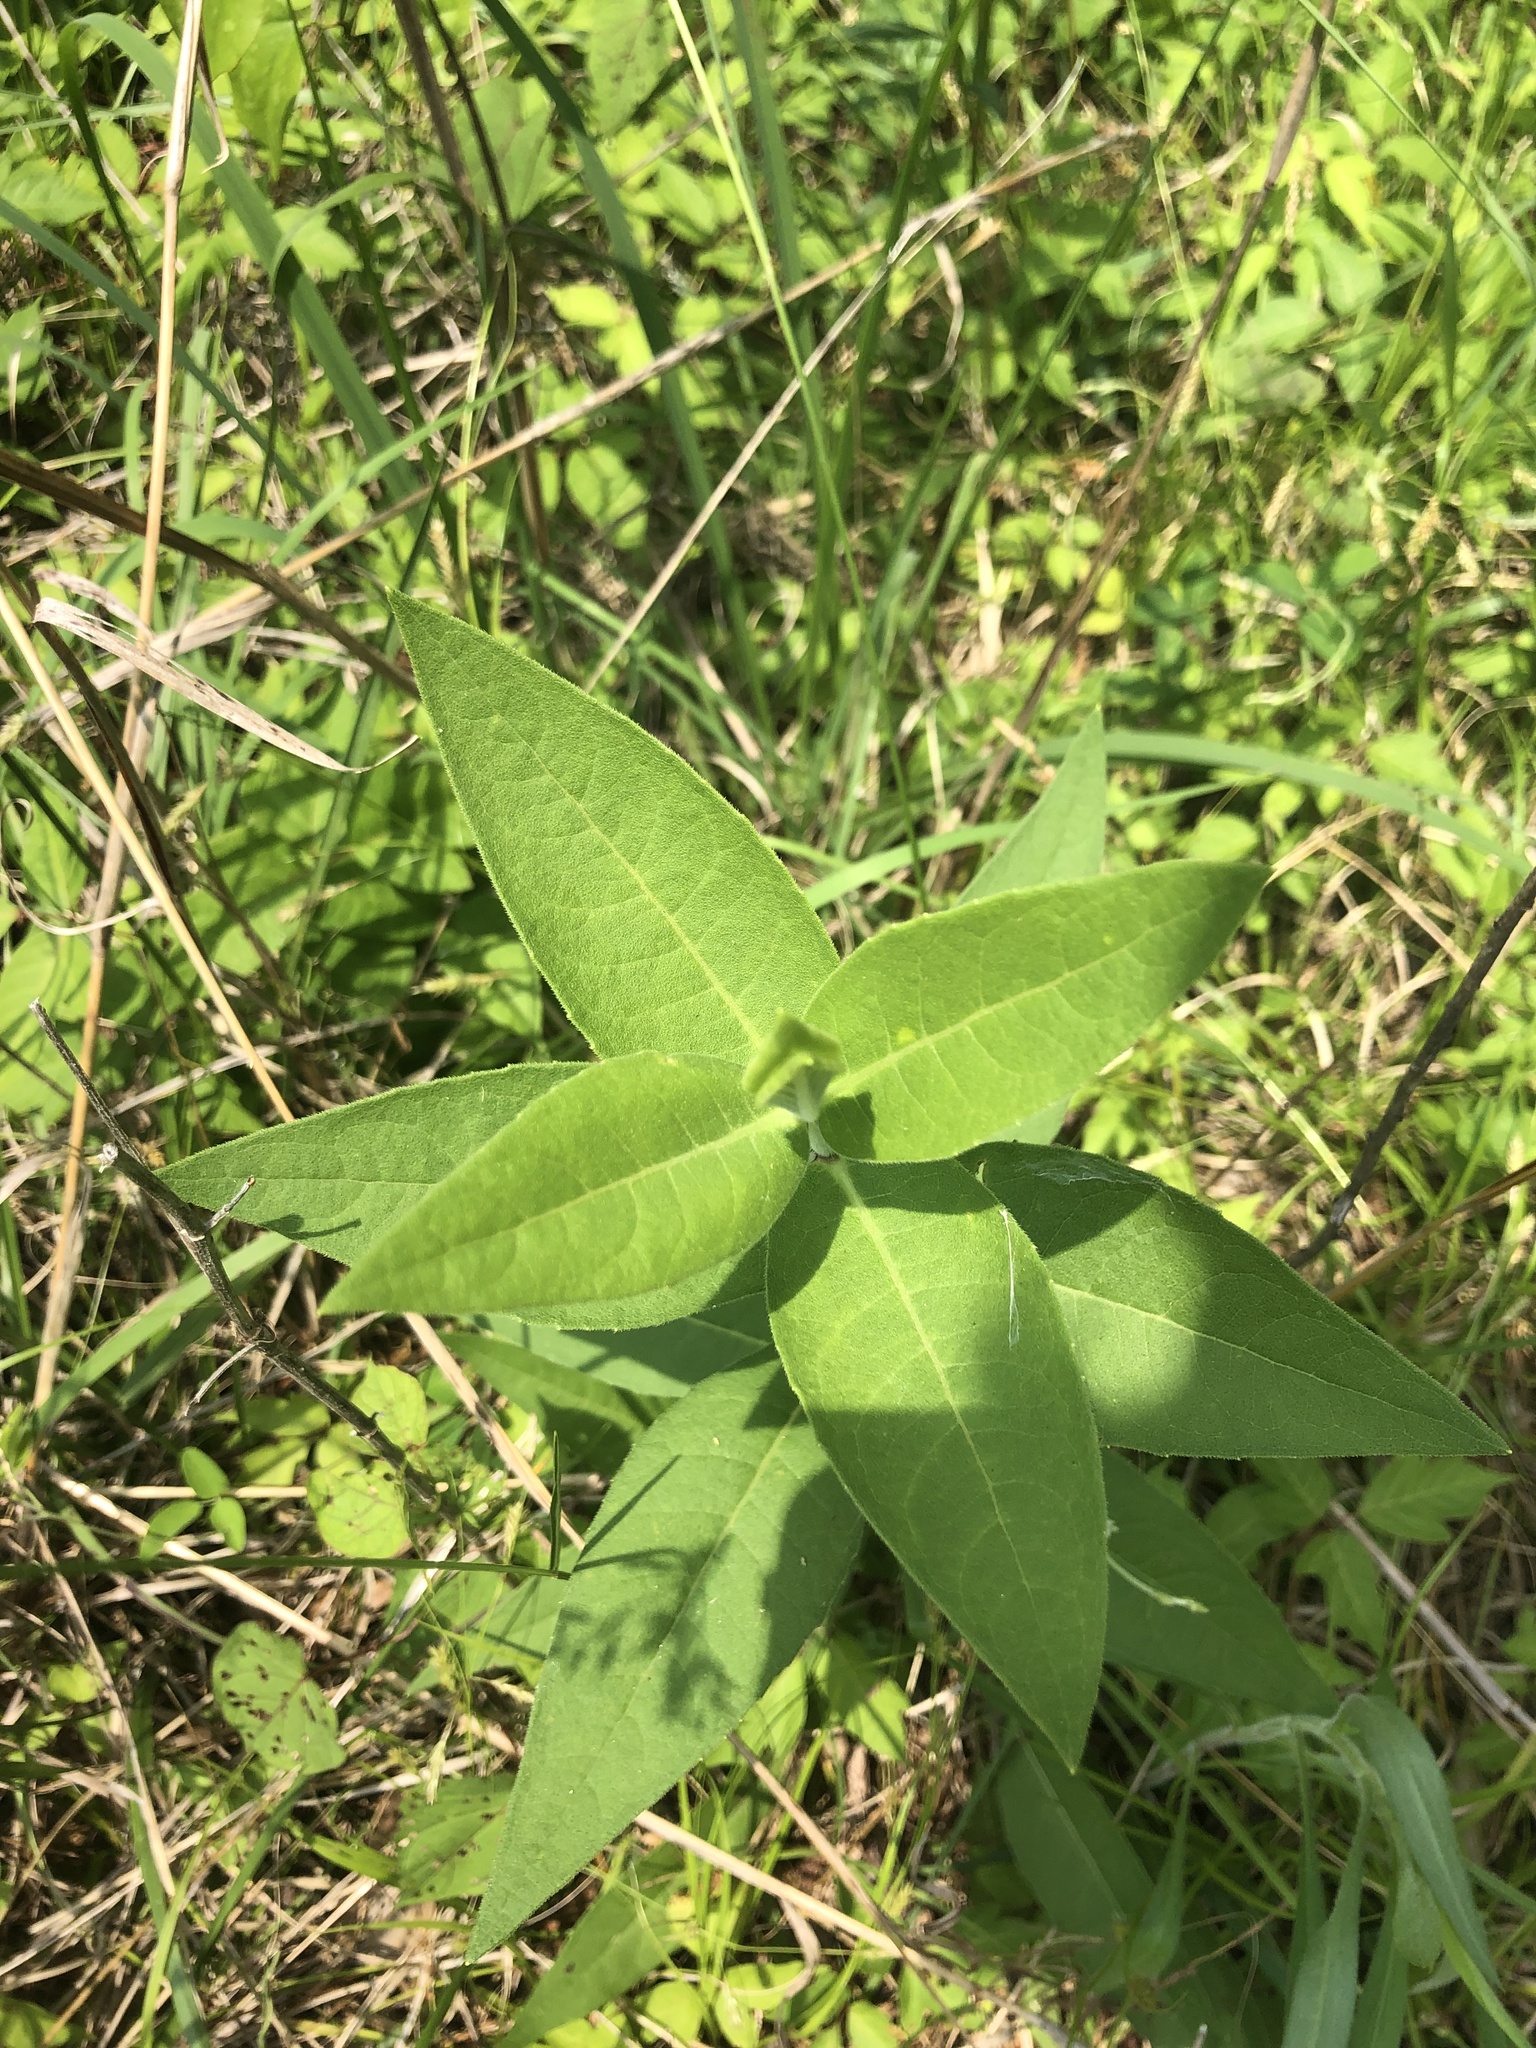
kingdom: Plantae
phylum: Tracheophyta
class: Magnoliopsida
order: Asterales
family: Asteraceae
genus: Silphium
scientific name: Silphium integrifolium
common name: Whole-leaf rosinweed
